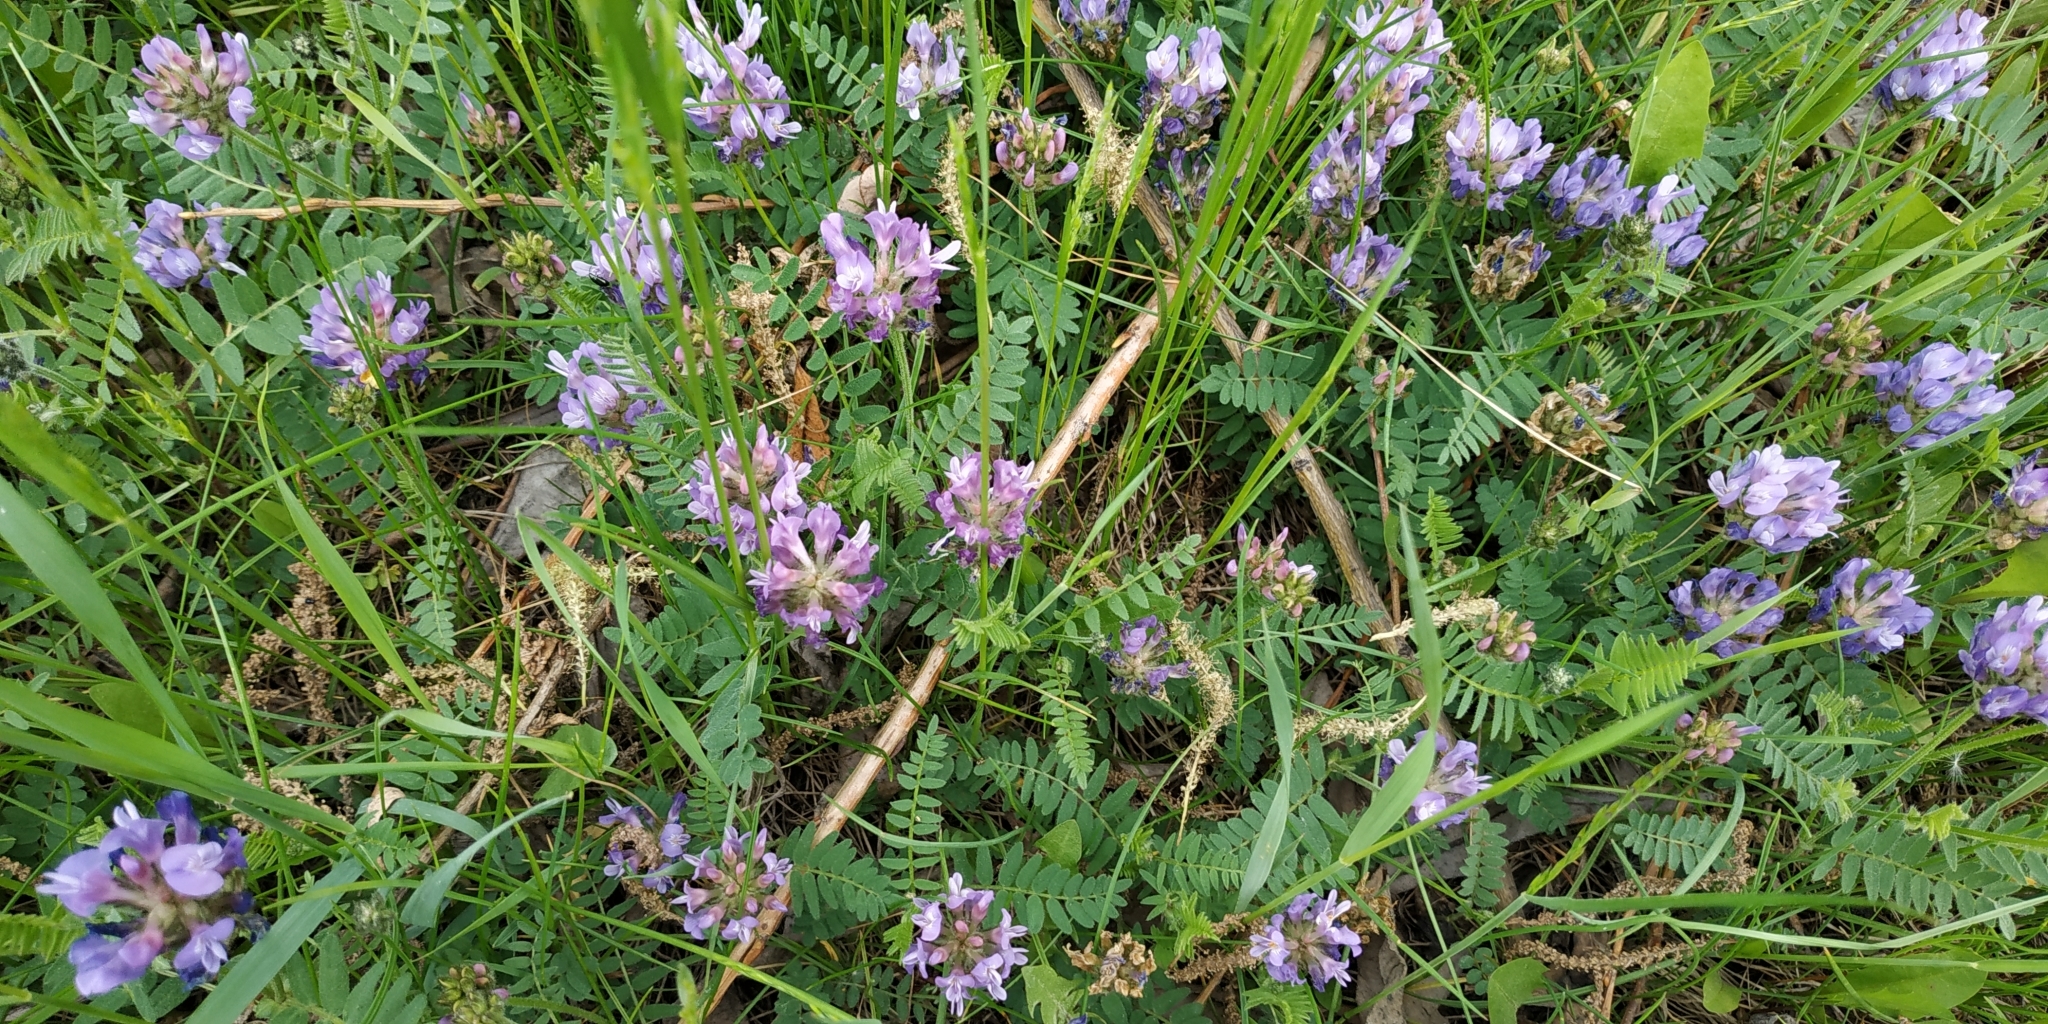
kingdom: Plantae
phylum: Tracheophyta
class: Magnoliopsida
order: Fabales
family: Fabaceae
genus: Astragalus
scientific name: Astragalus danicus
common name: Purple milk-vetch
